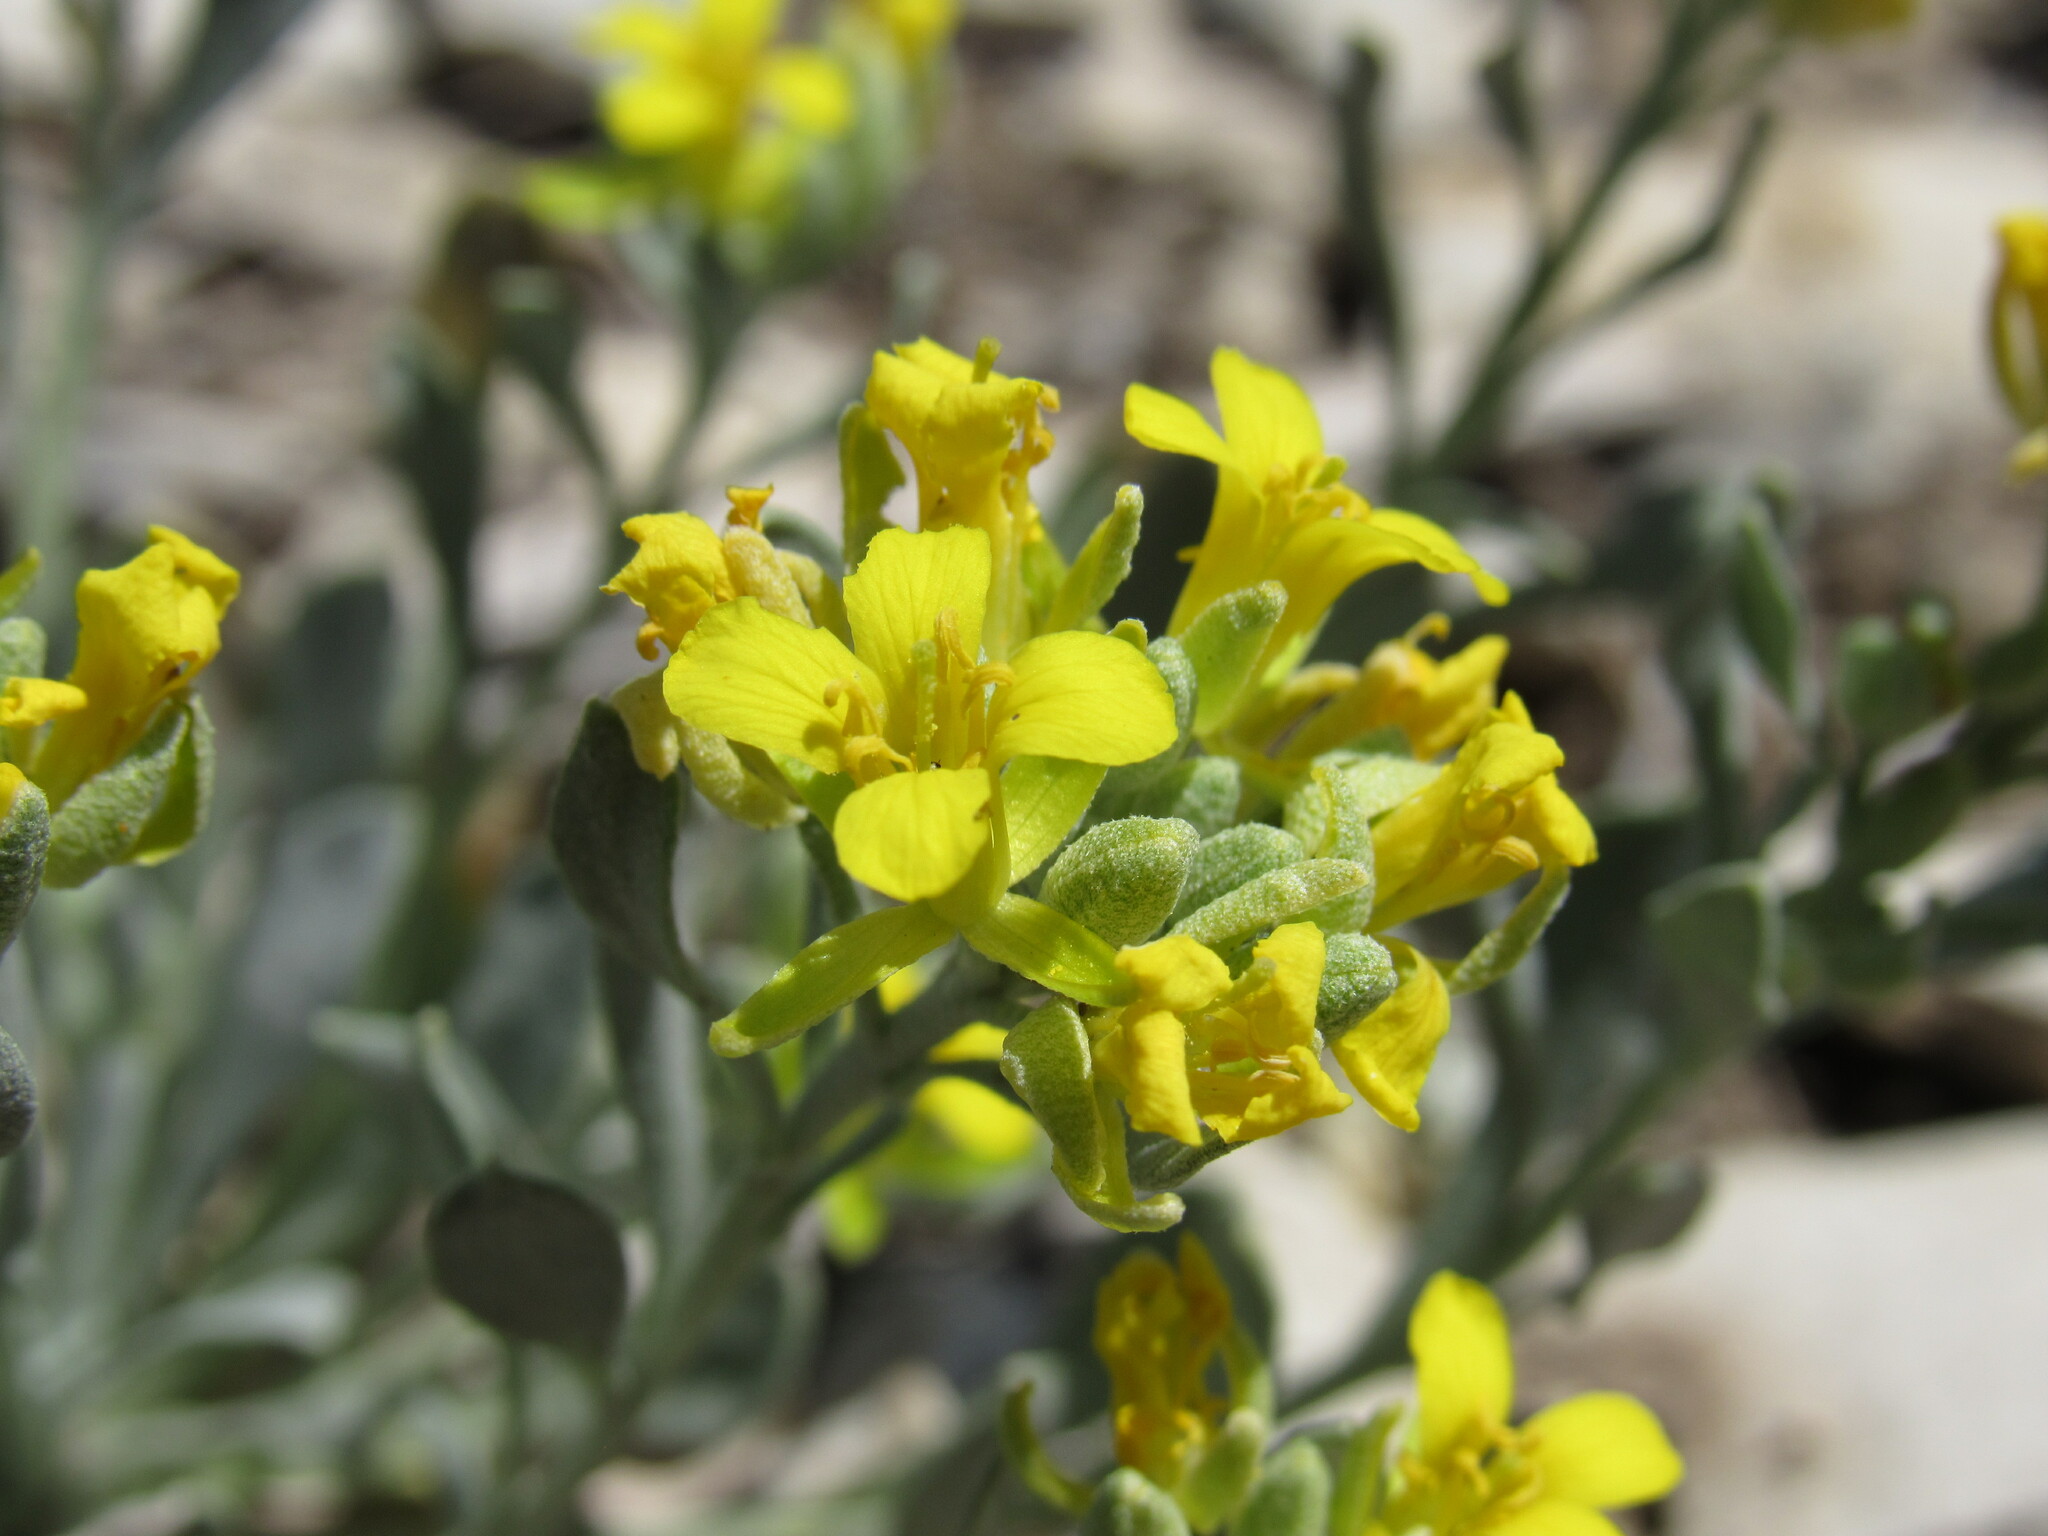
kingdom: Plantae
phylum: Tracheophyta
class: Magnoliopsida
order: Brassicales
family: Brassicaceae
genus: Physaria
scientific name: Physaria bellii
